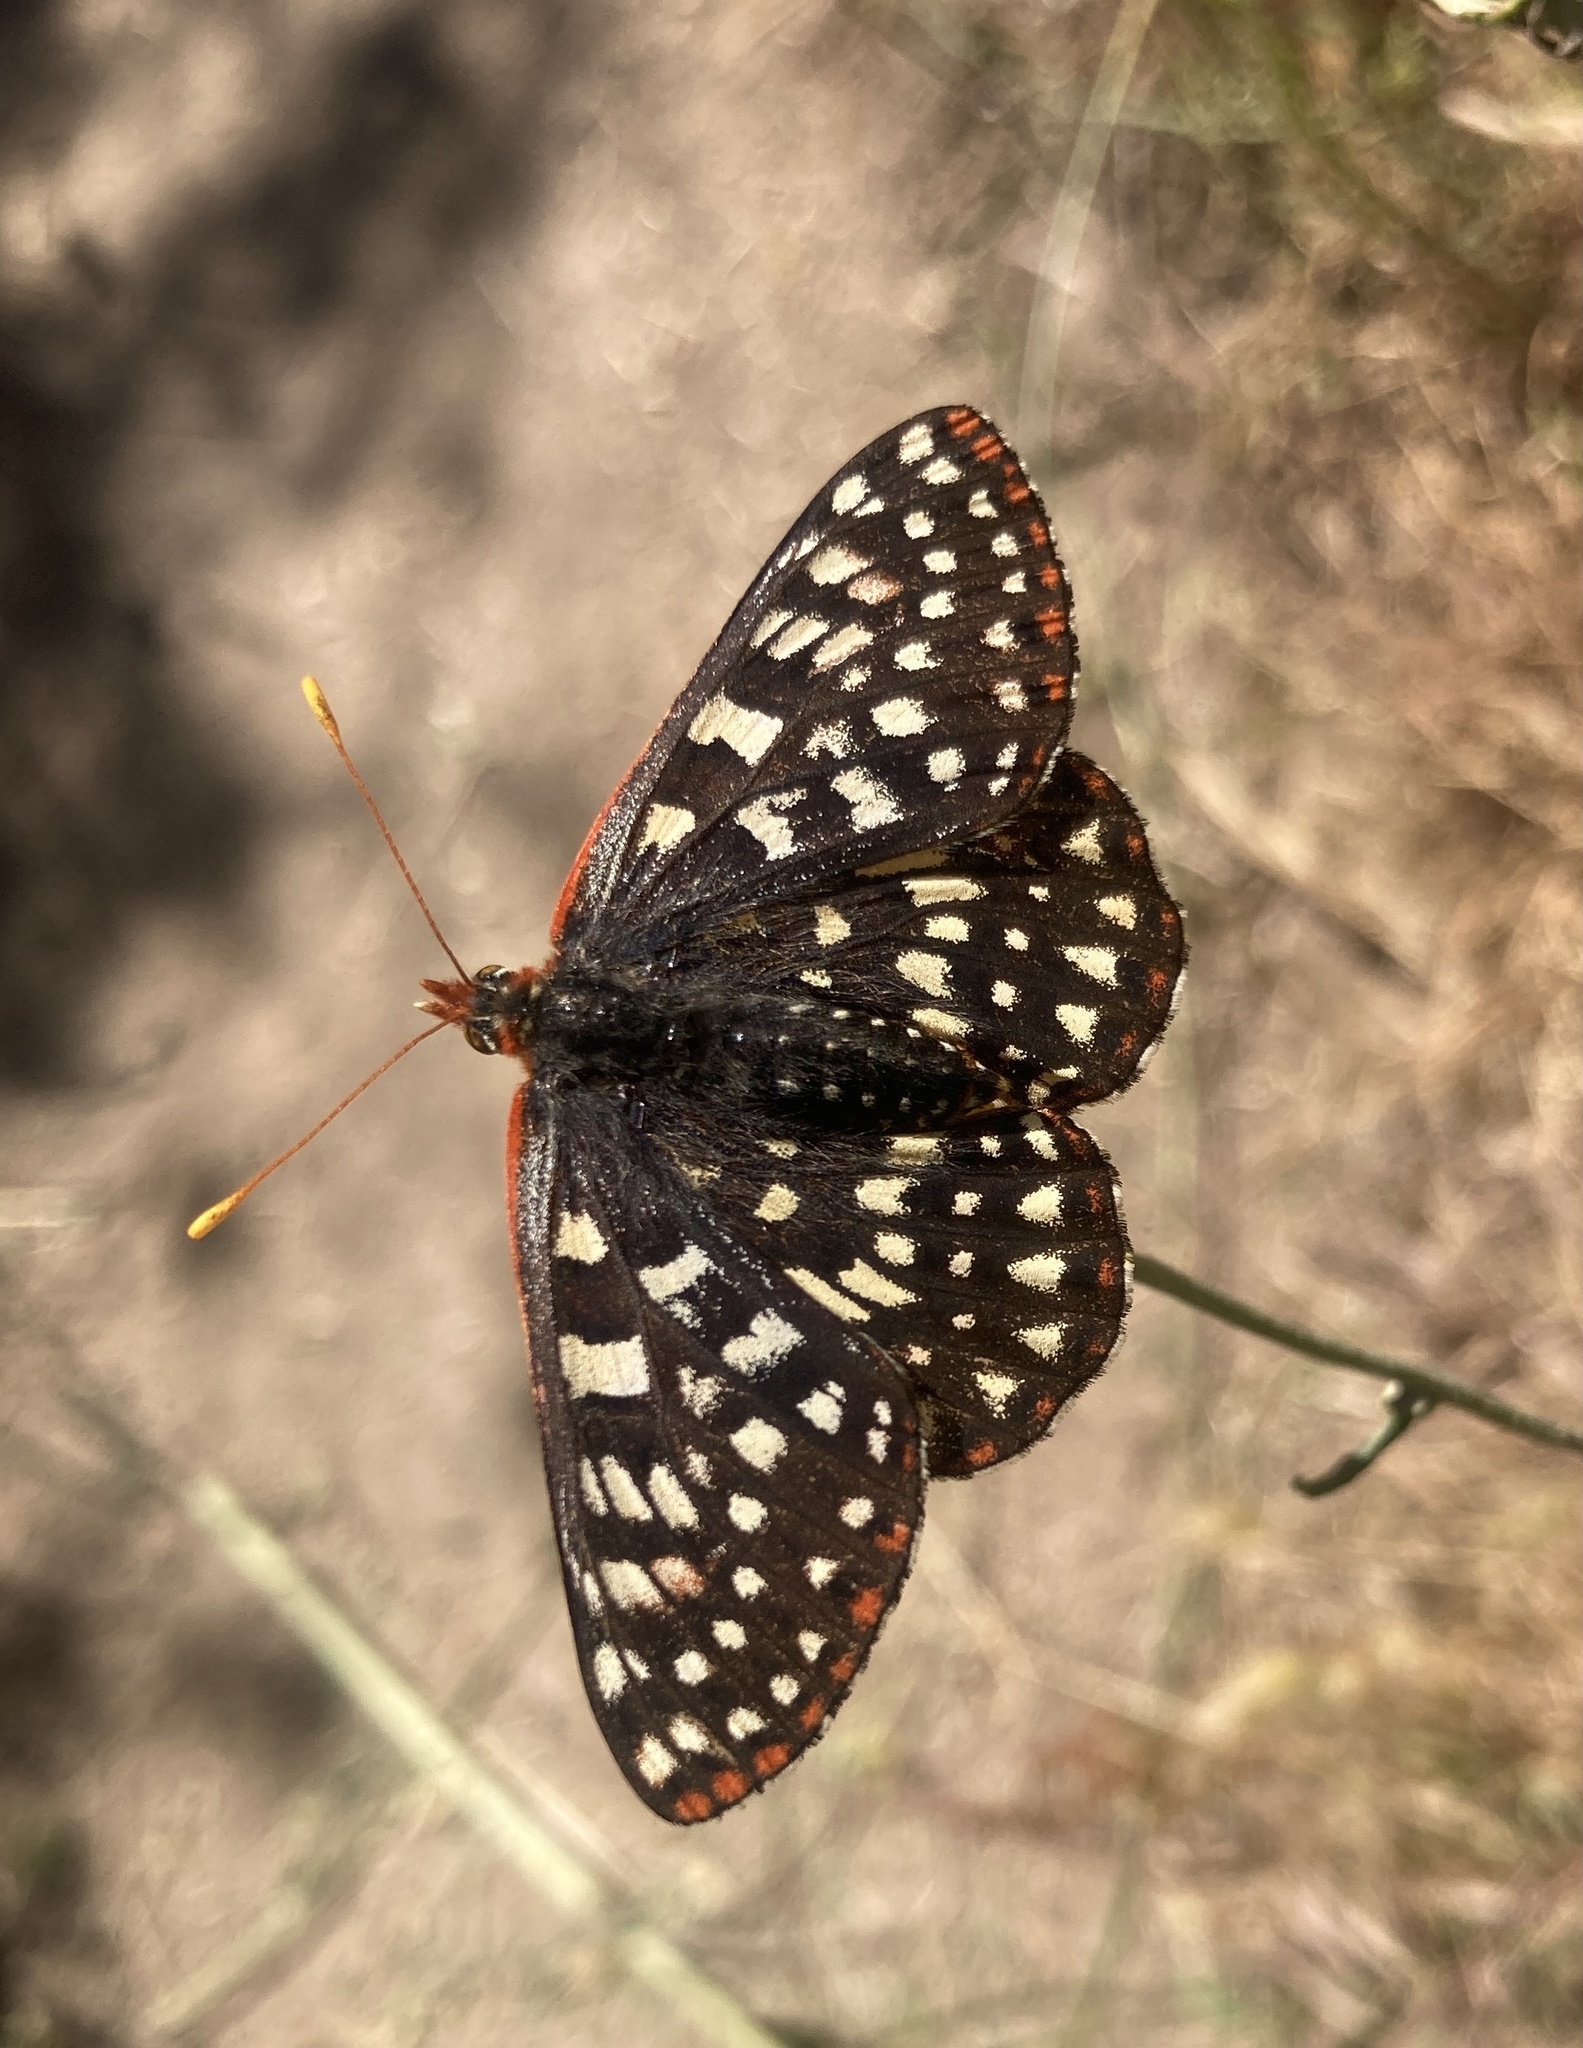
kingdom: Animalia
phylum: Arthropoda
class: Insecta
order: Lepidoptera
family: Nymphalidae
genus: Occidryas
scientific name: Occidryas chalcedona
